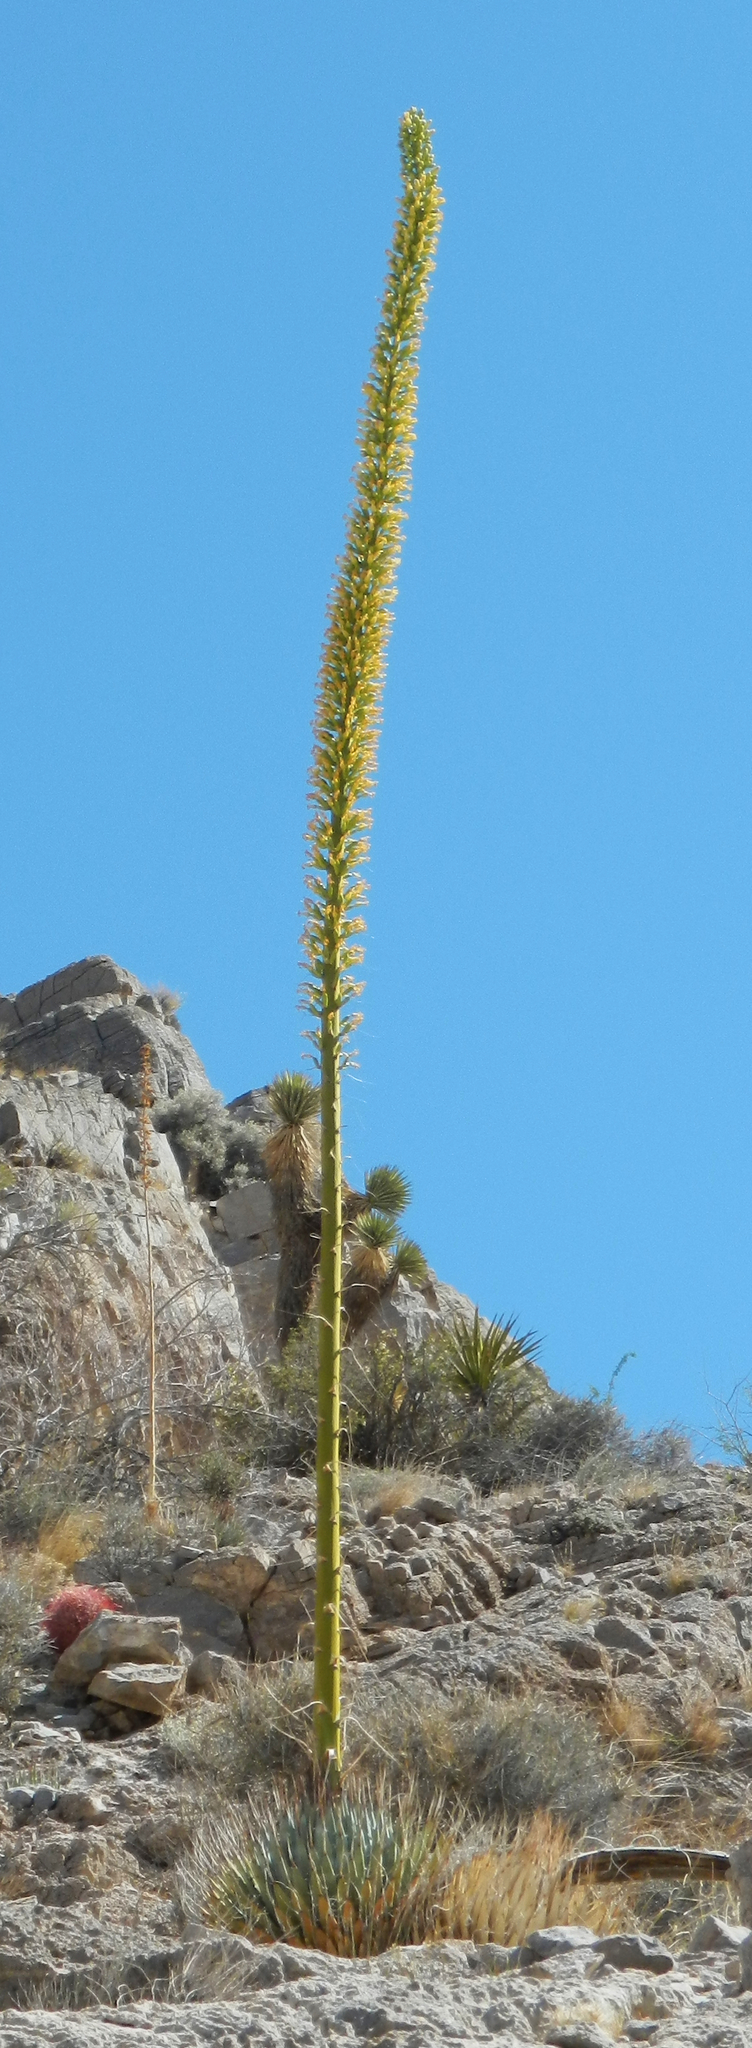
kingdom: Plantae
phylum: Tracheophyta
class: Liliopsida
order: Asparagales
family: Asparagaceae
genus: Agave
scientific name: Agave utahensis
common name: Utah agave
